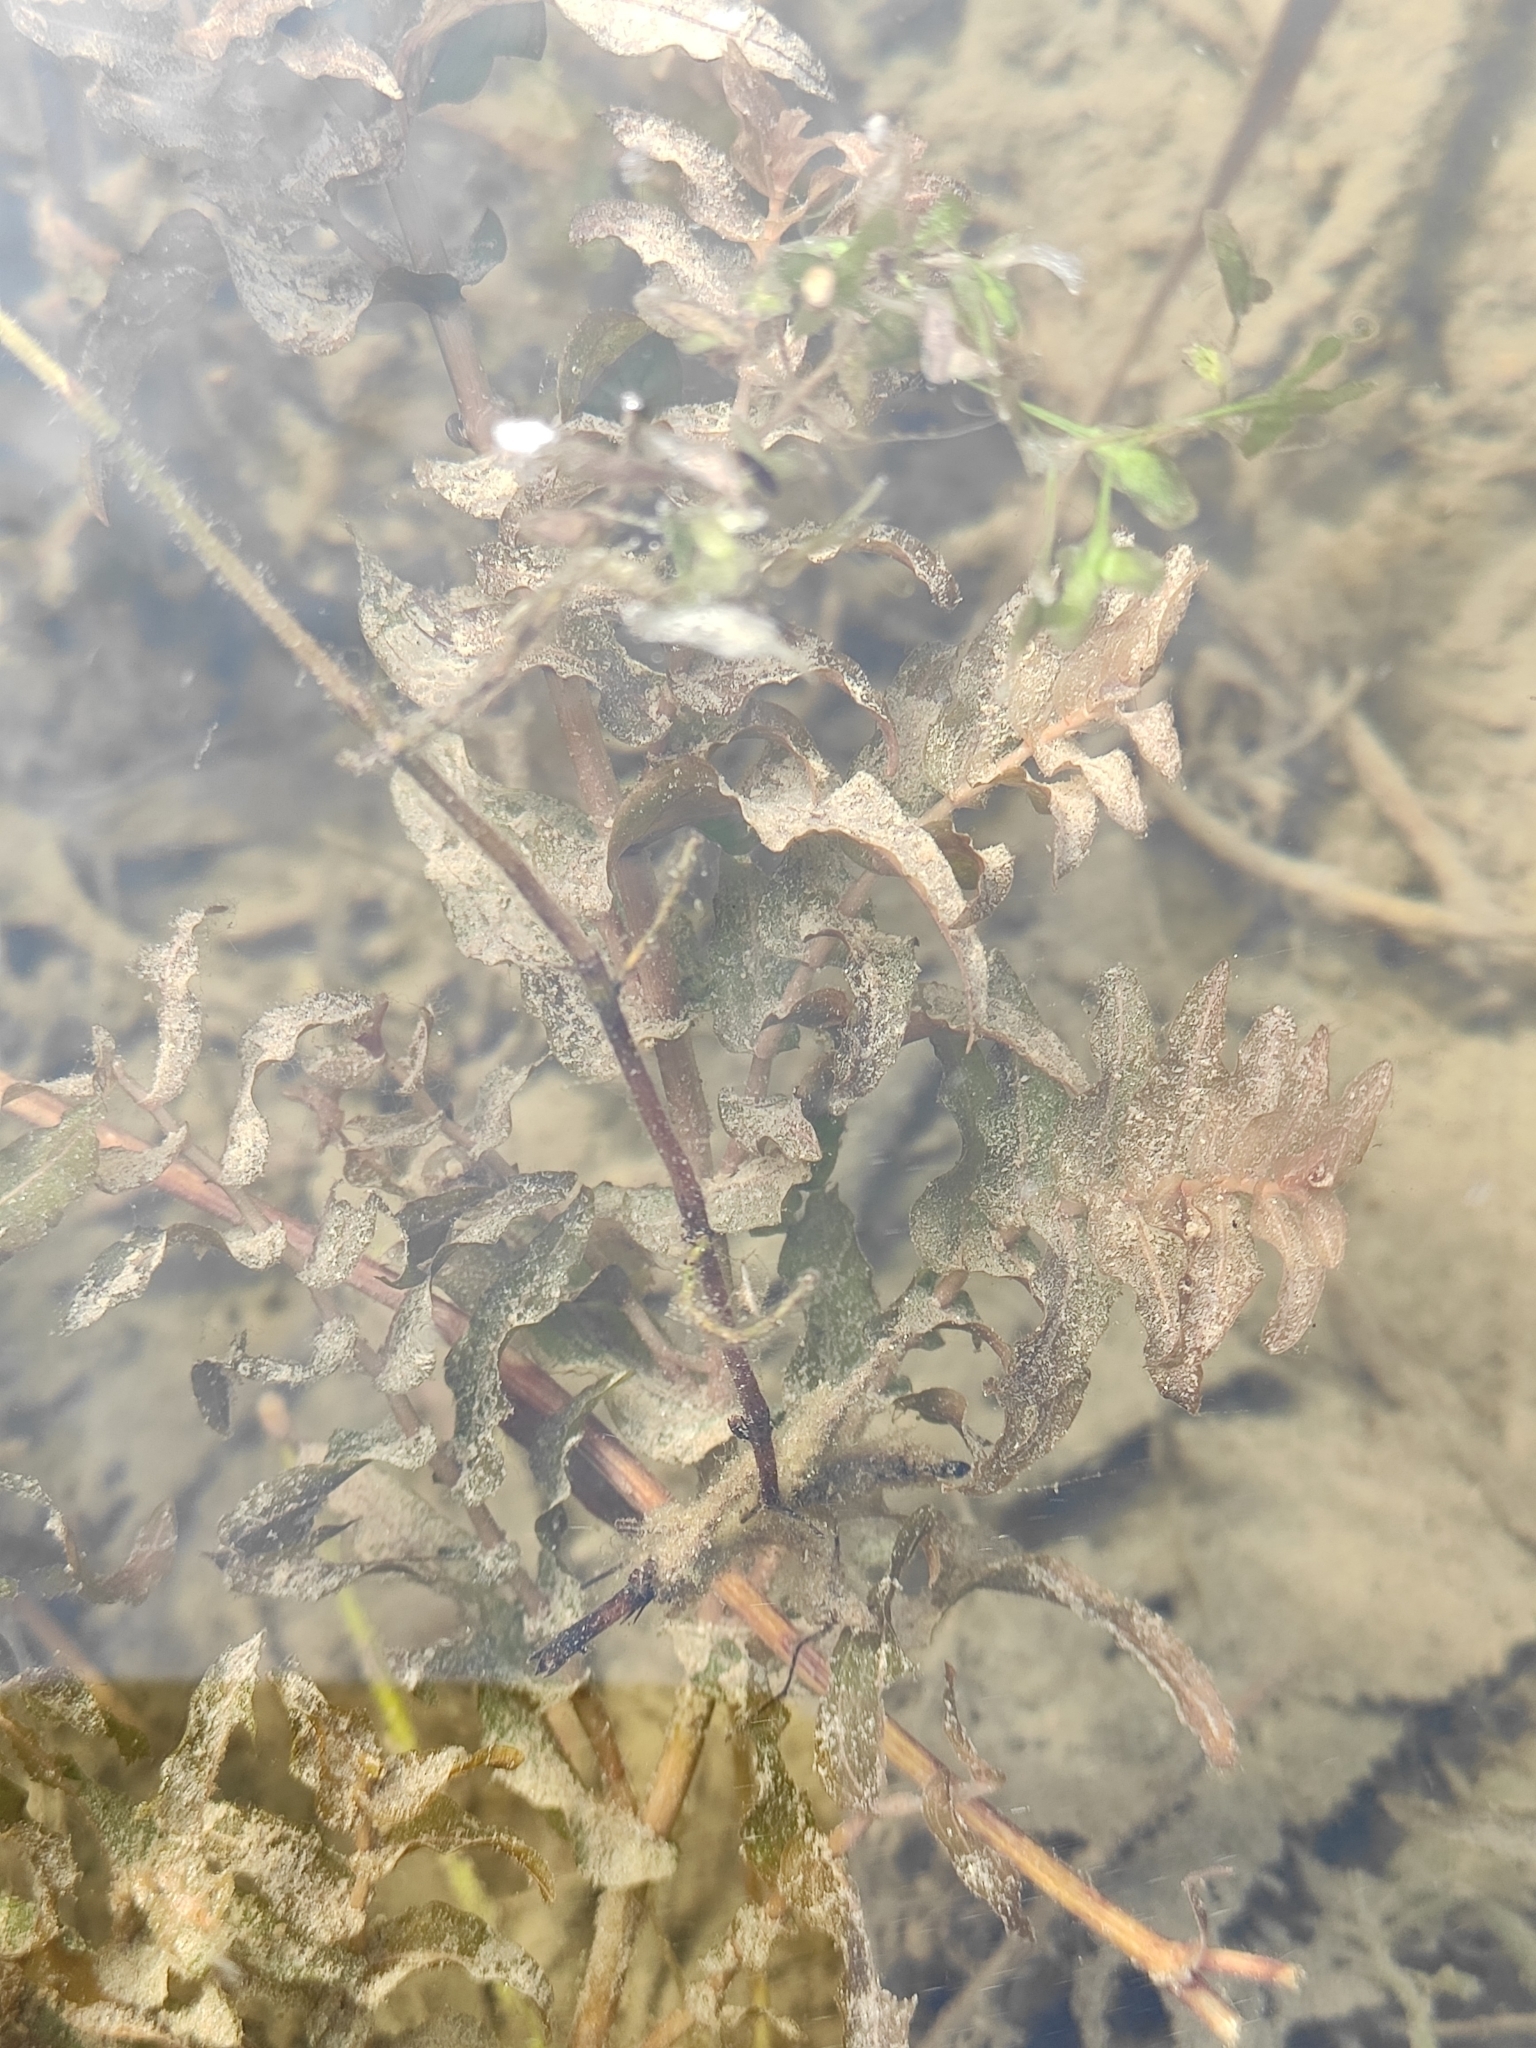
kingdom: Plantae
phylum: Tracheophyta
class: Liliopsida
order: Alismatales
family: Potamogetonaceae
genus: Potamogeton
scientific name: Potamogeton perfoliatus
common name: Perfoliate pondweed
